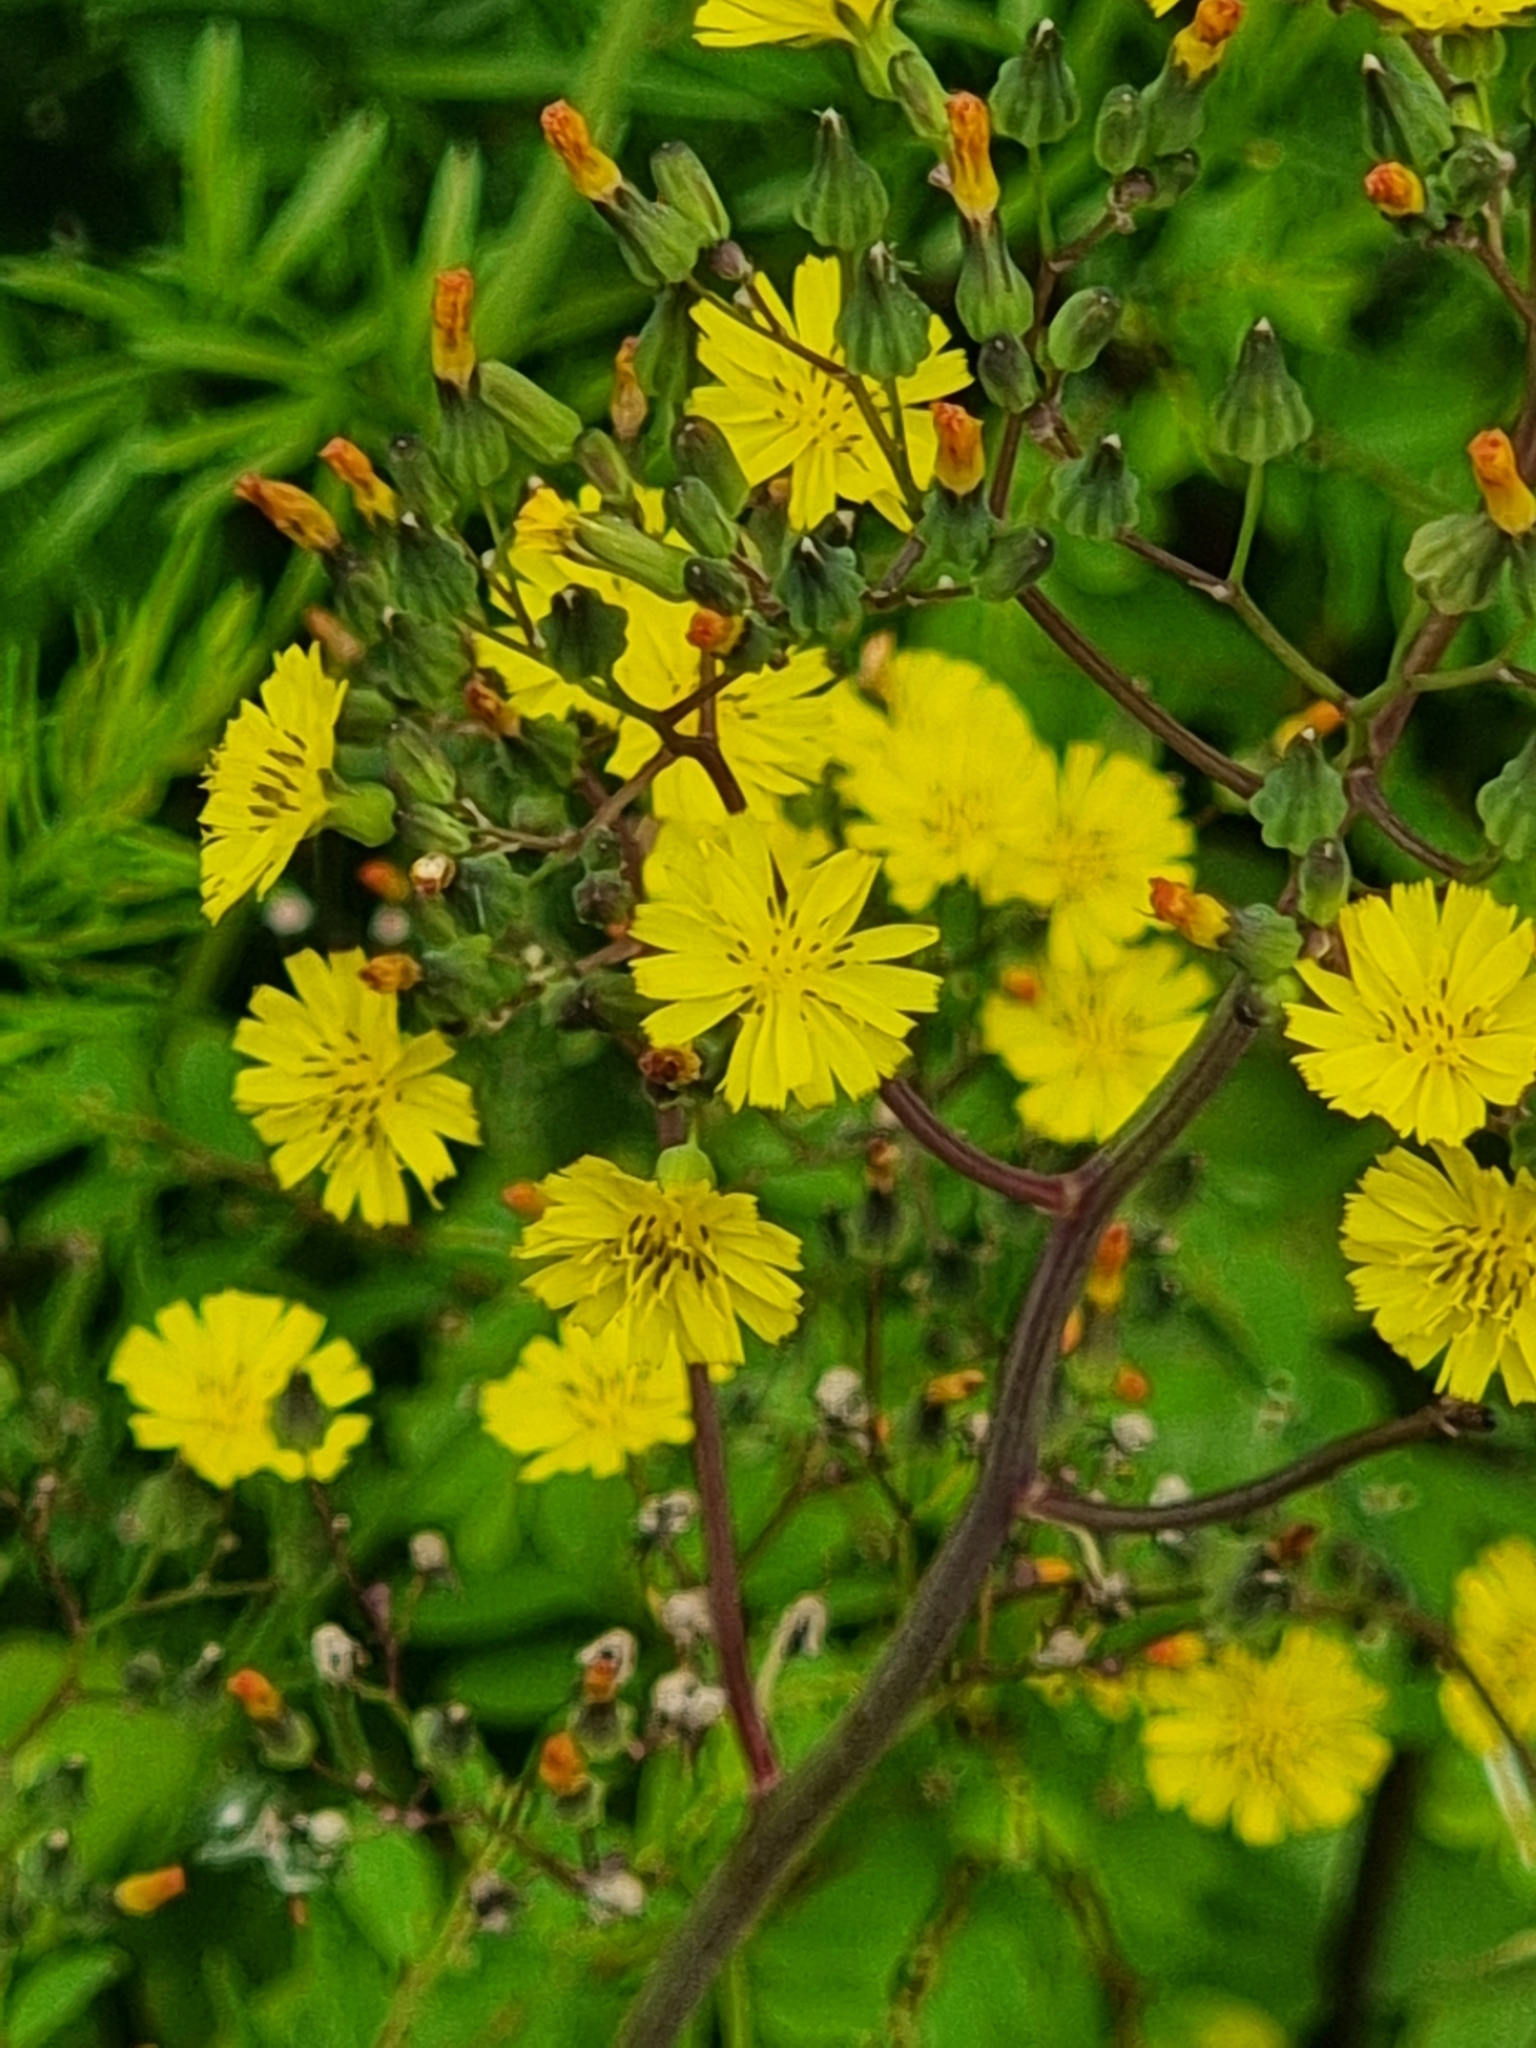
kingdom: Plantae
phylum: Tracheophyta
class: Magnoliopsida
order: Asterales
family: Asteraceae
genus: Youngia
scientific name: Youngia japonica
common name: Oriental false hawksbeard
